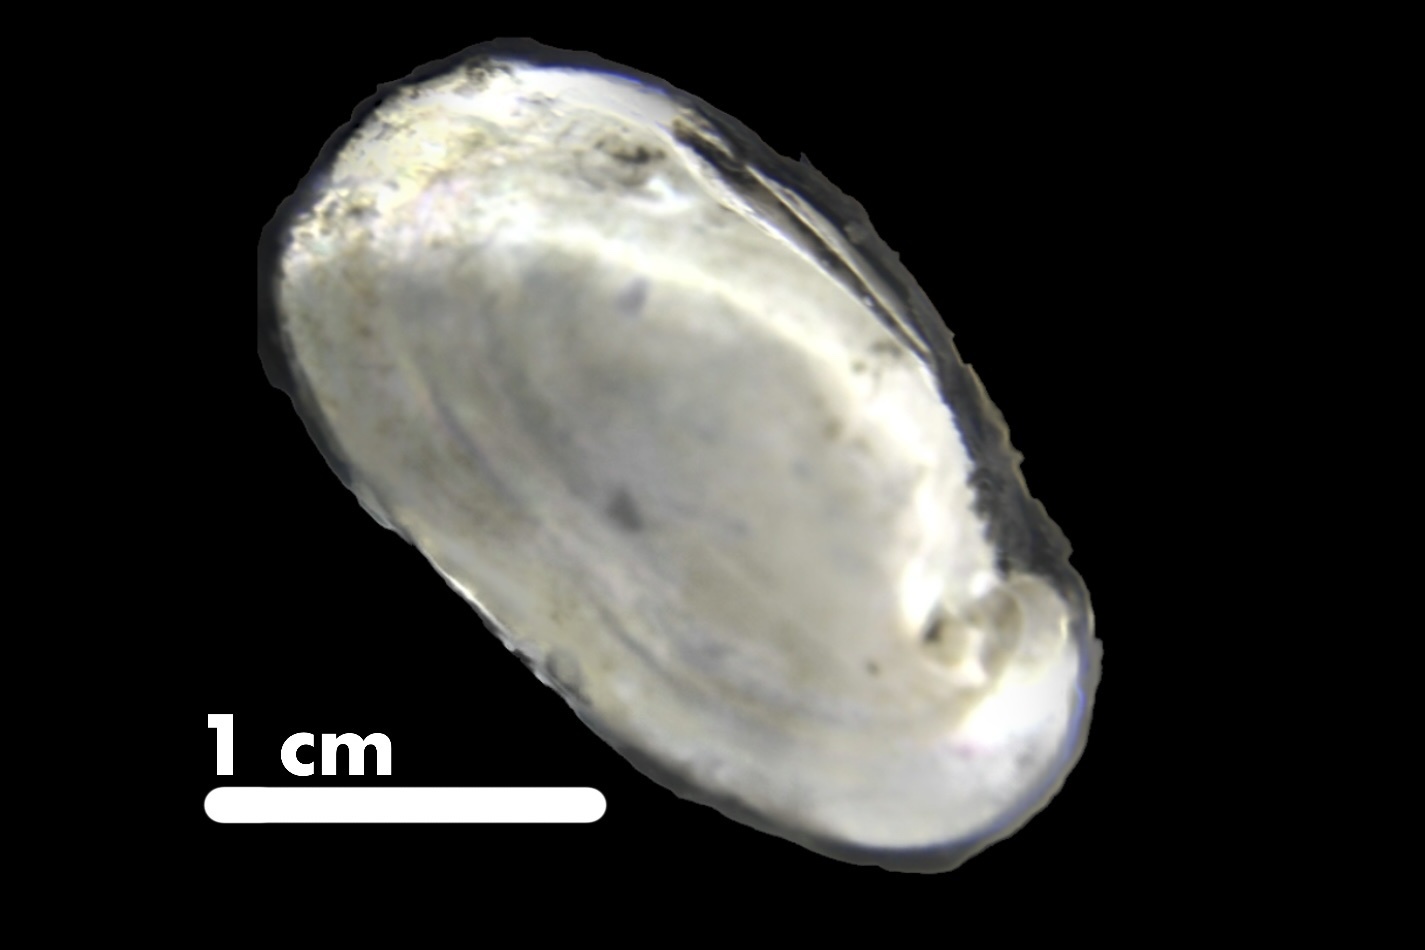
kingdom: Animalia
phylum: Mollusca
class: Bivalvia
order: Unionida
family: Unionidae
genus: Toxolasma
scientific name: Toxolasma parvum
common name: Lilliput
